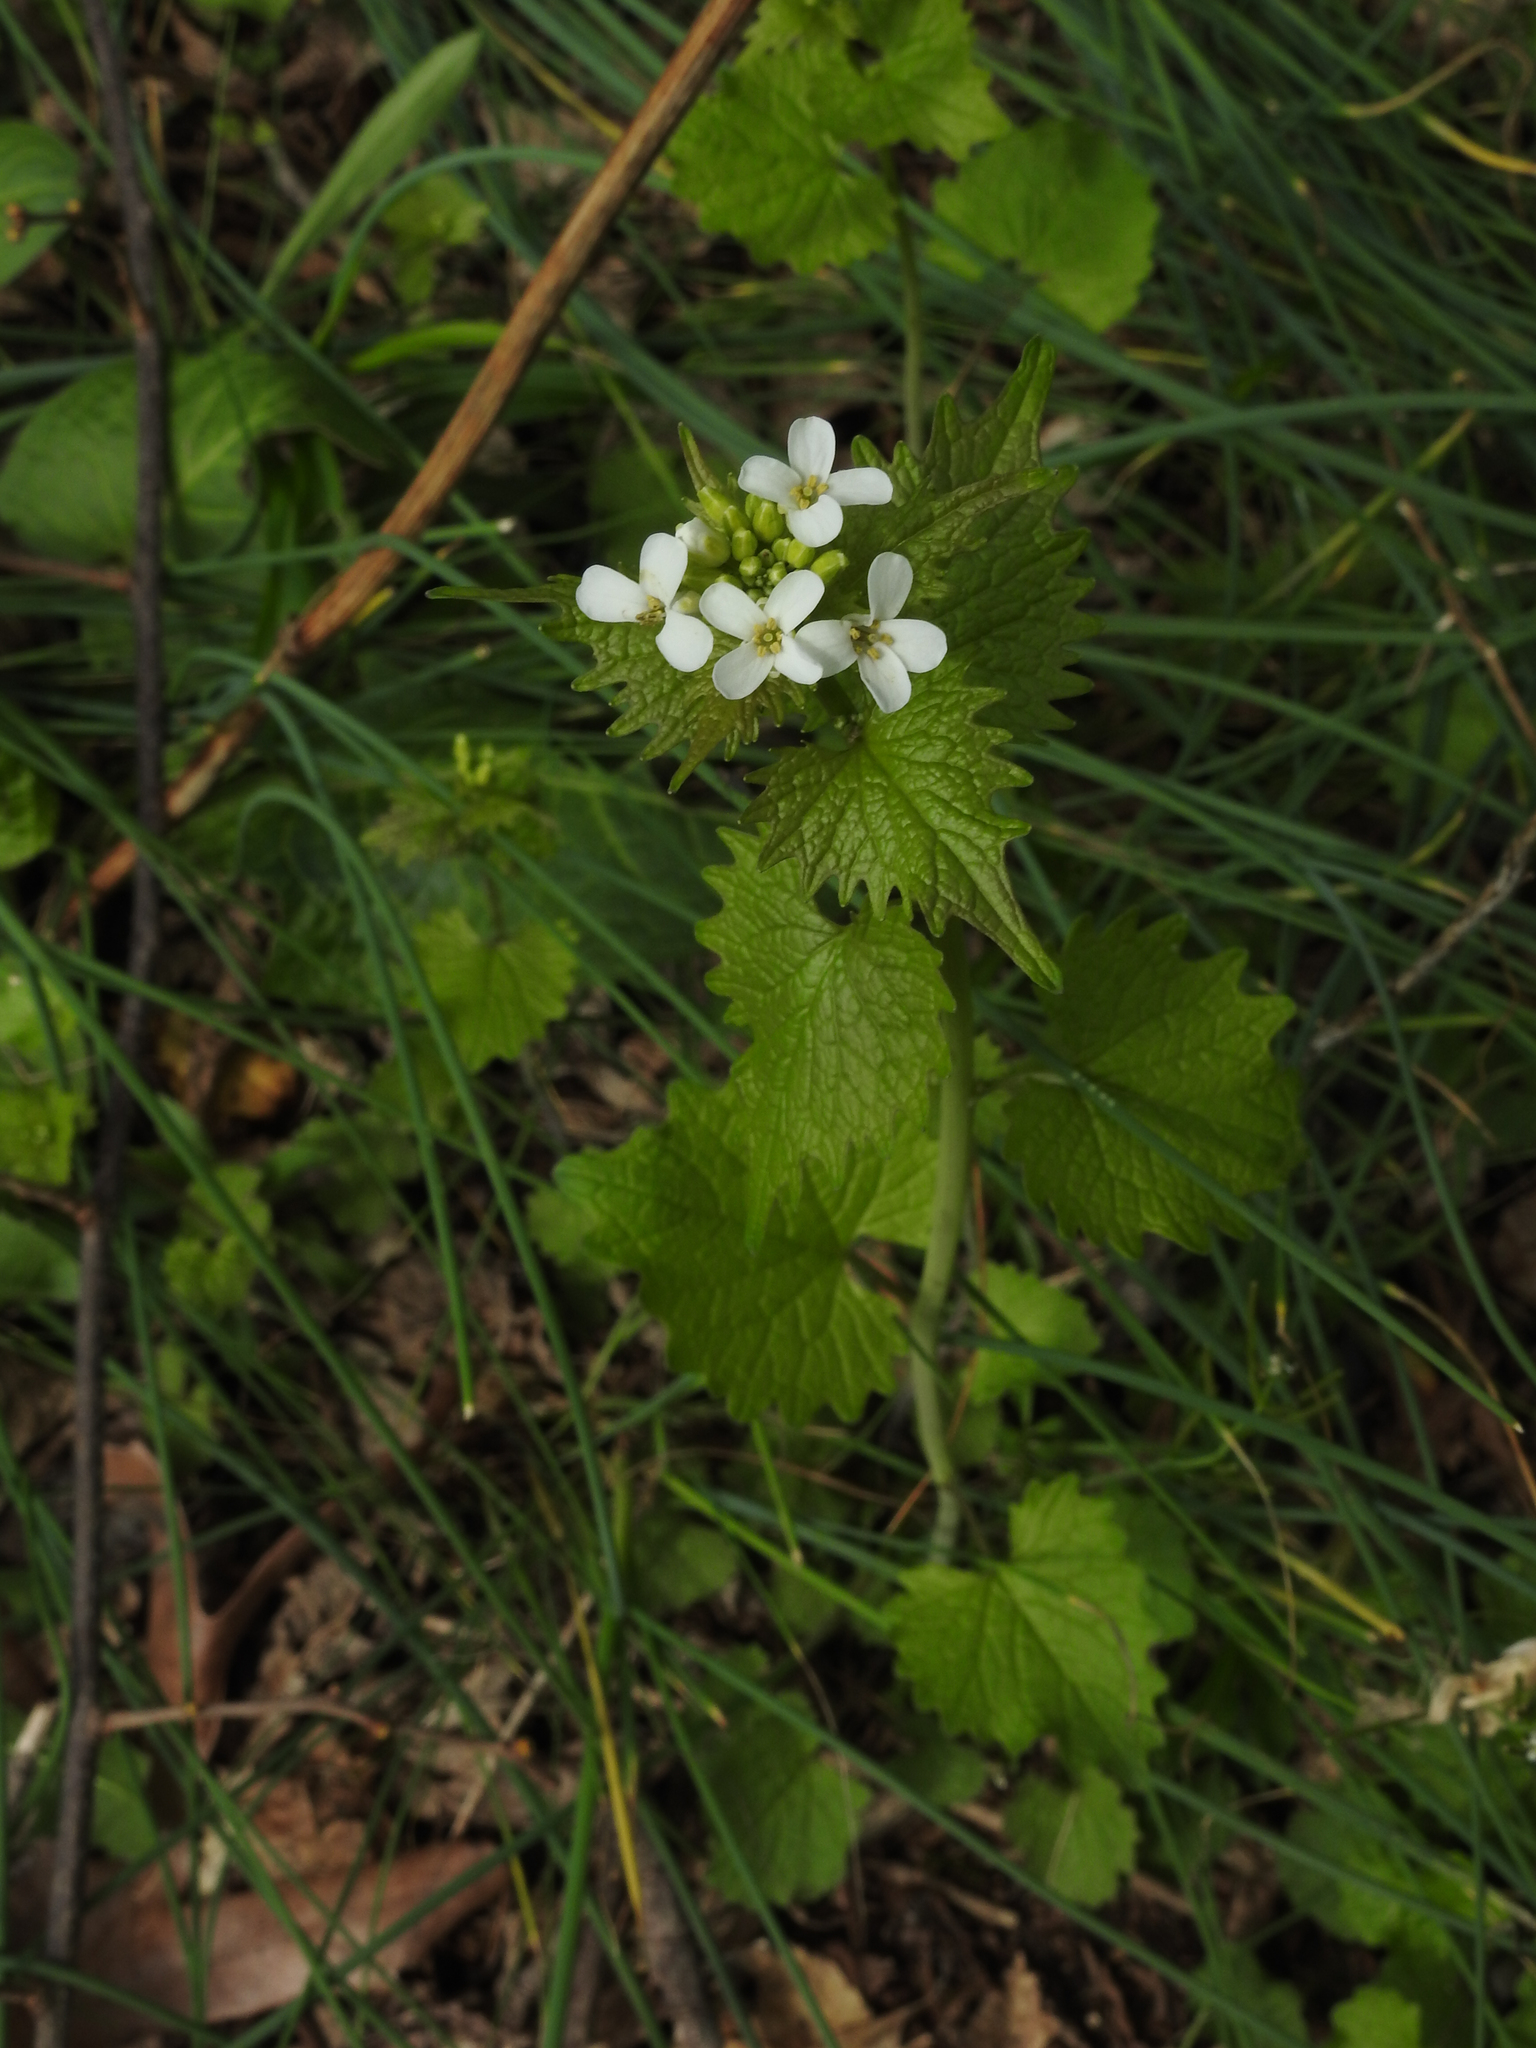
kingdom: Plantae
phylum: Tracheophyta
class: Magnoliopsida
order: Brassicales
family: Brassicaceae
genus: Alliaria
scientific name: Alliaria petiolata
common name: Garlic mustard
